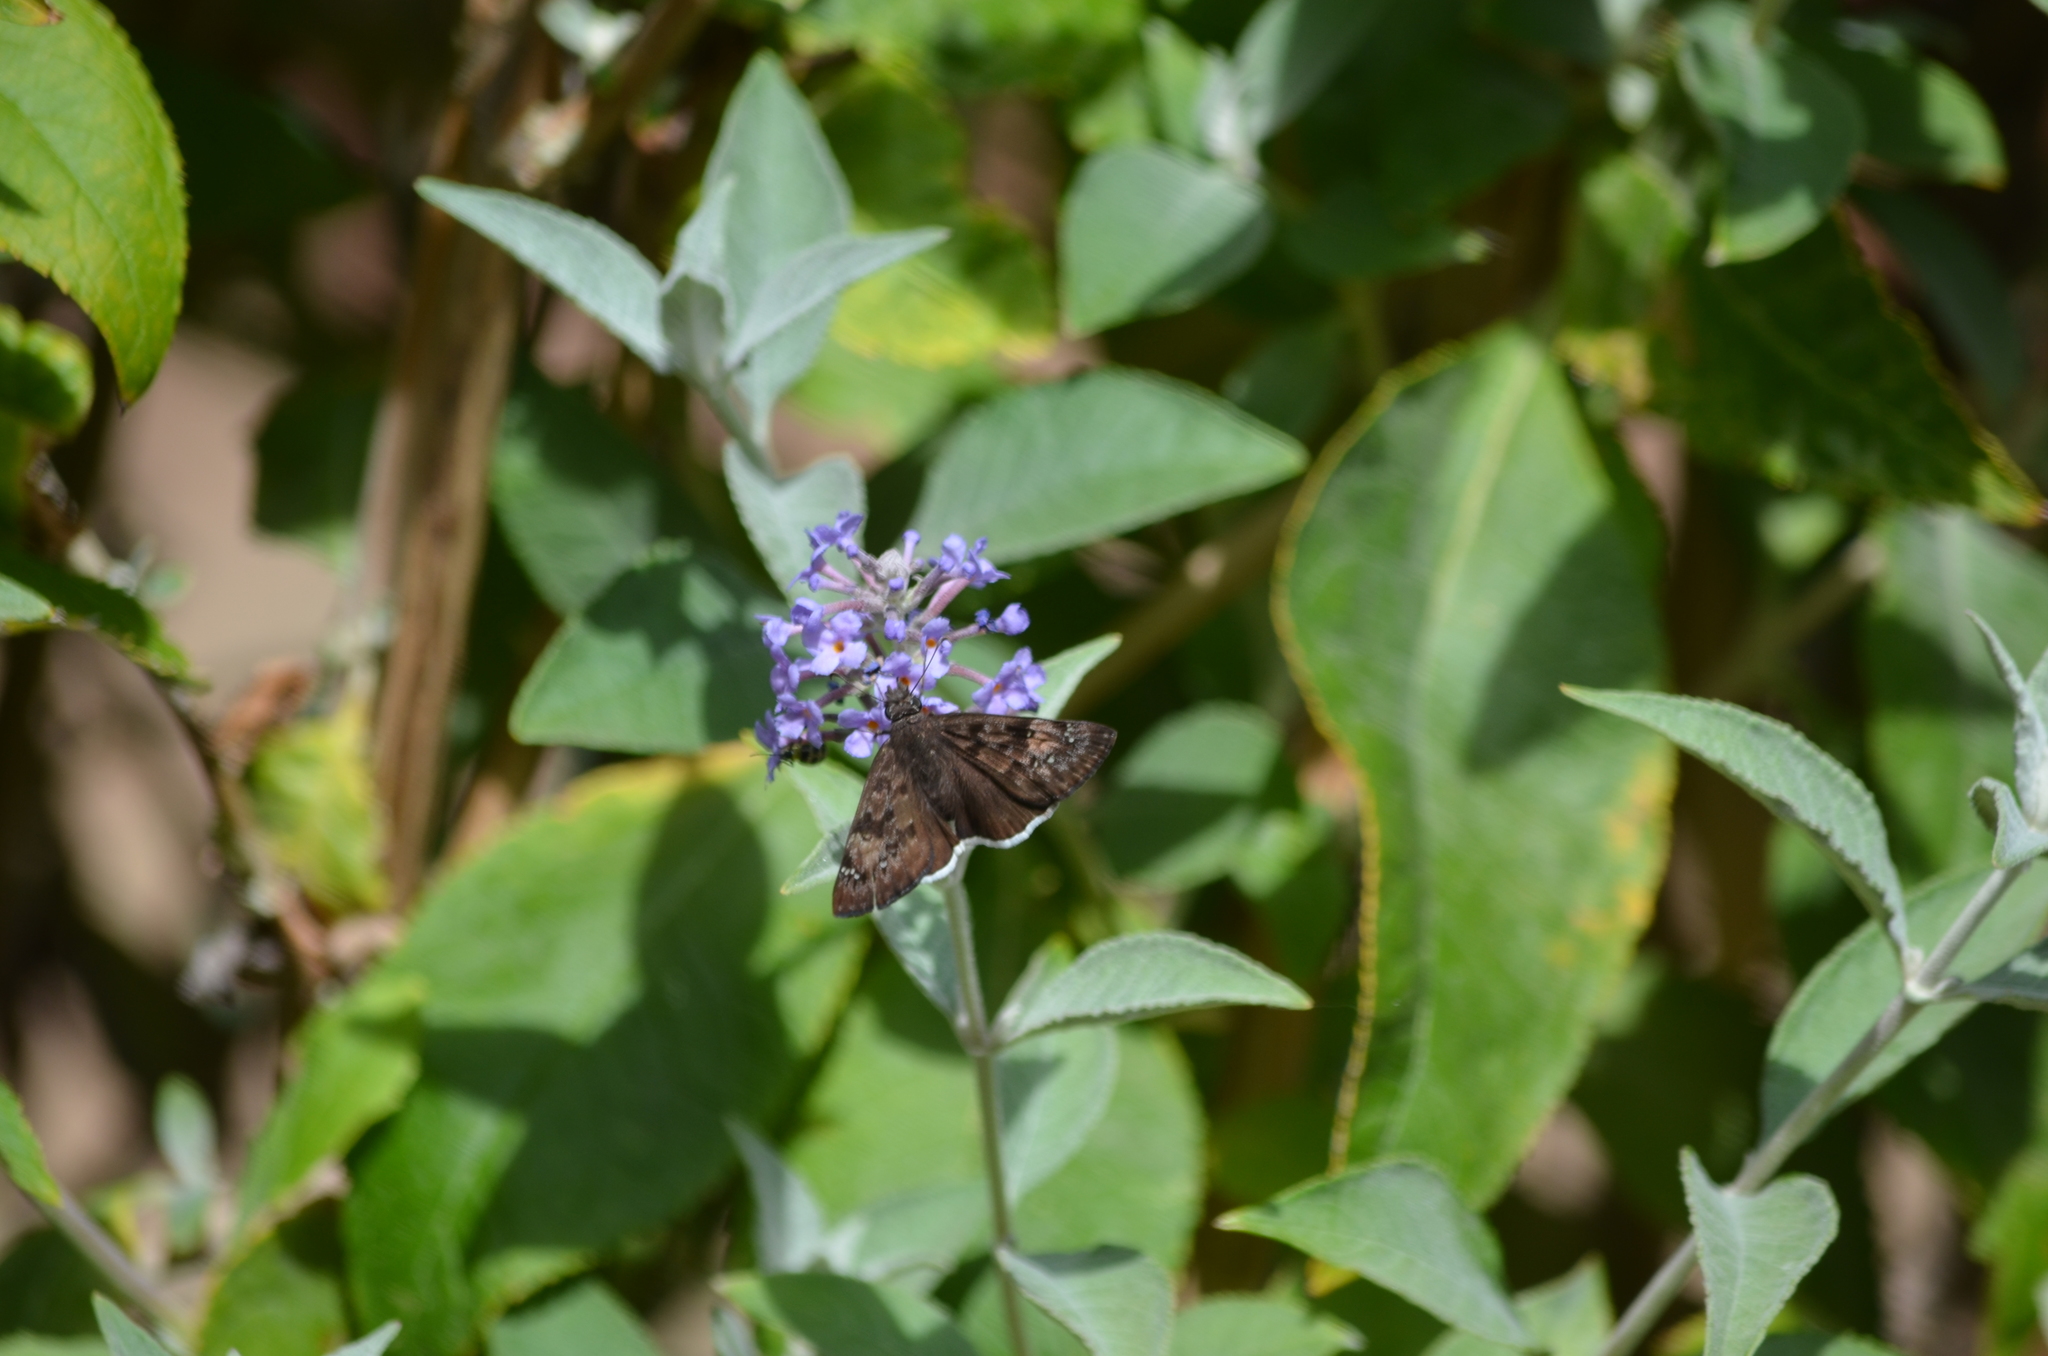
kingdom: Animalia
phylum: Arthropoda
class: Insecta
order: Lepidoptera
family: Hesperiidae
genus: Erynnis
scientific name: Erynnis tristis
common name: Mournful duskywing
